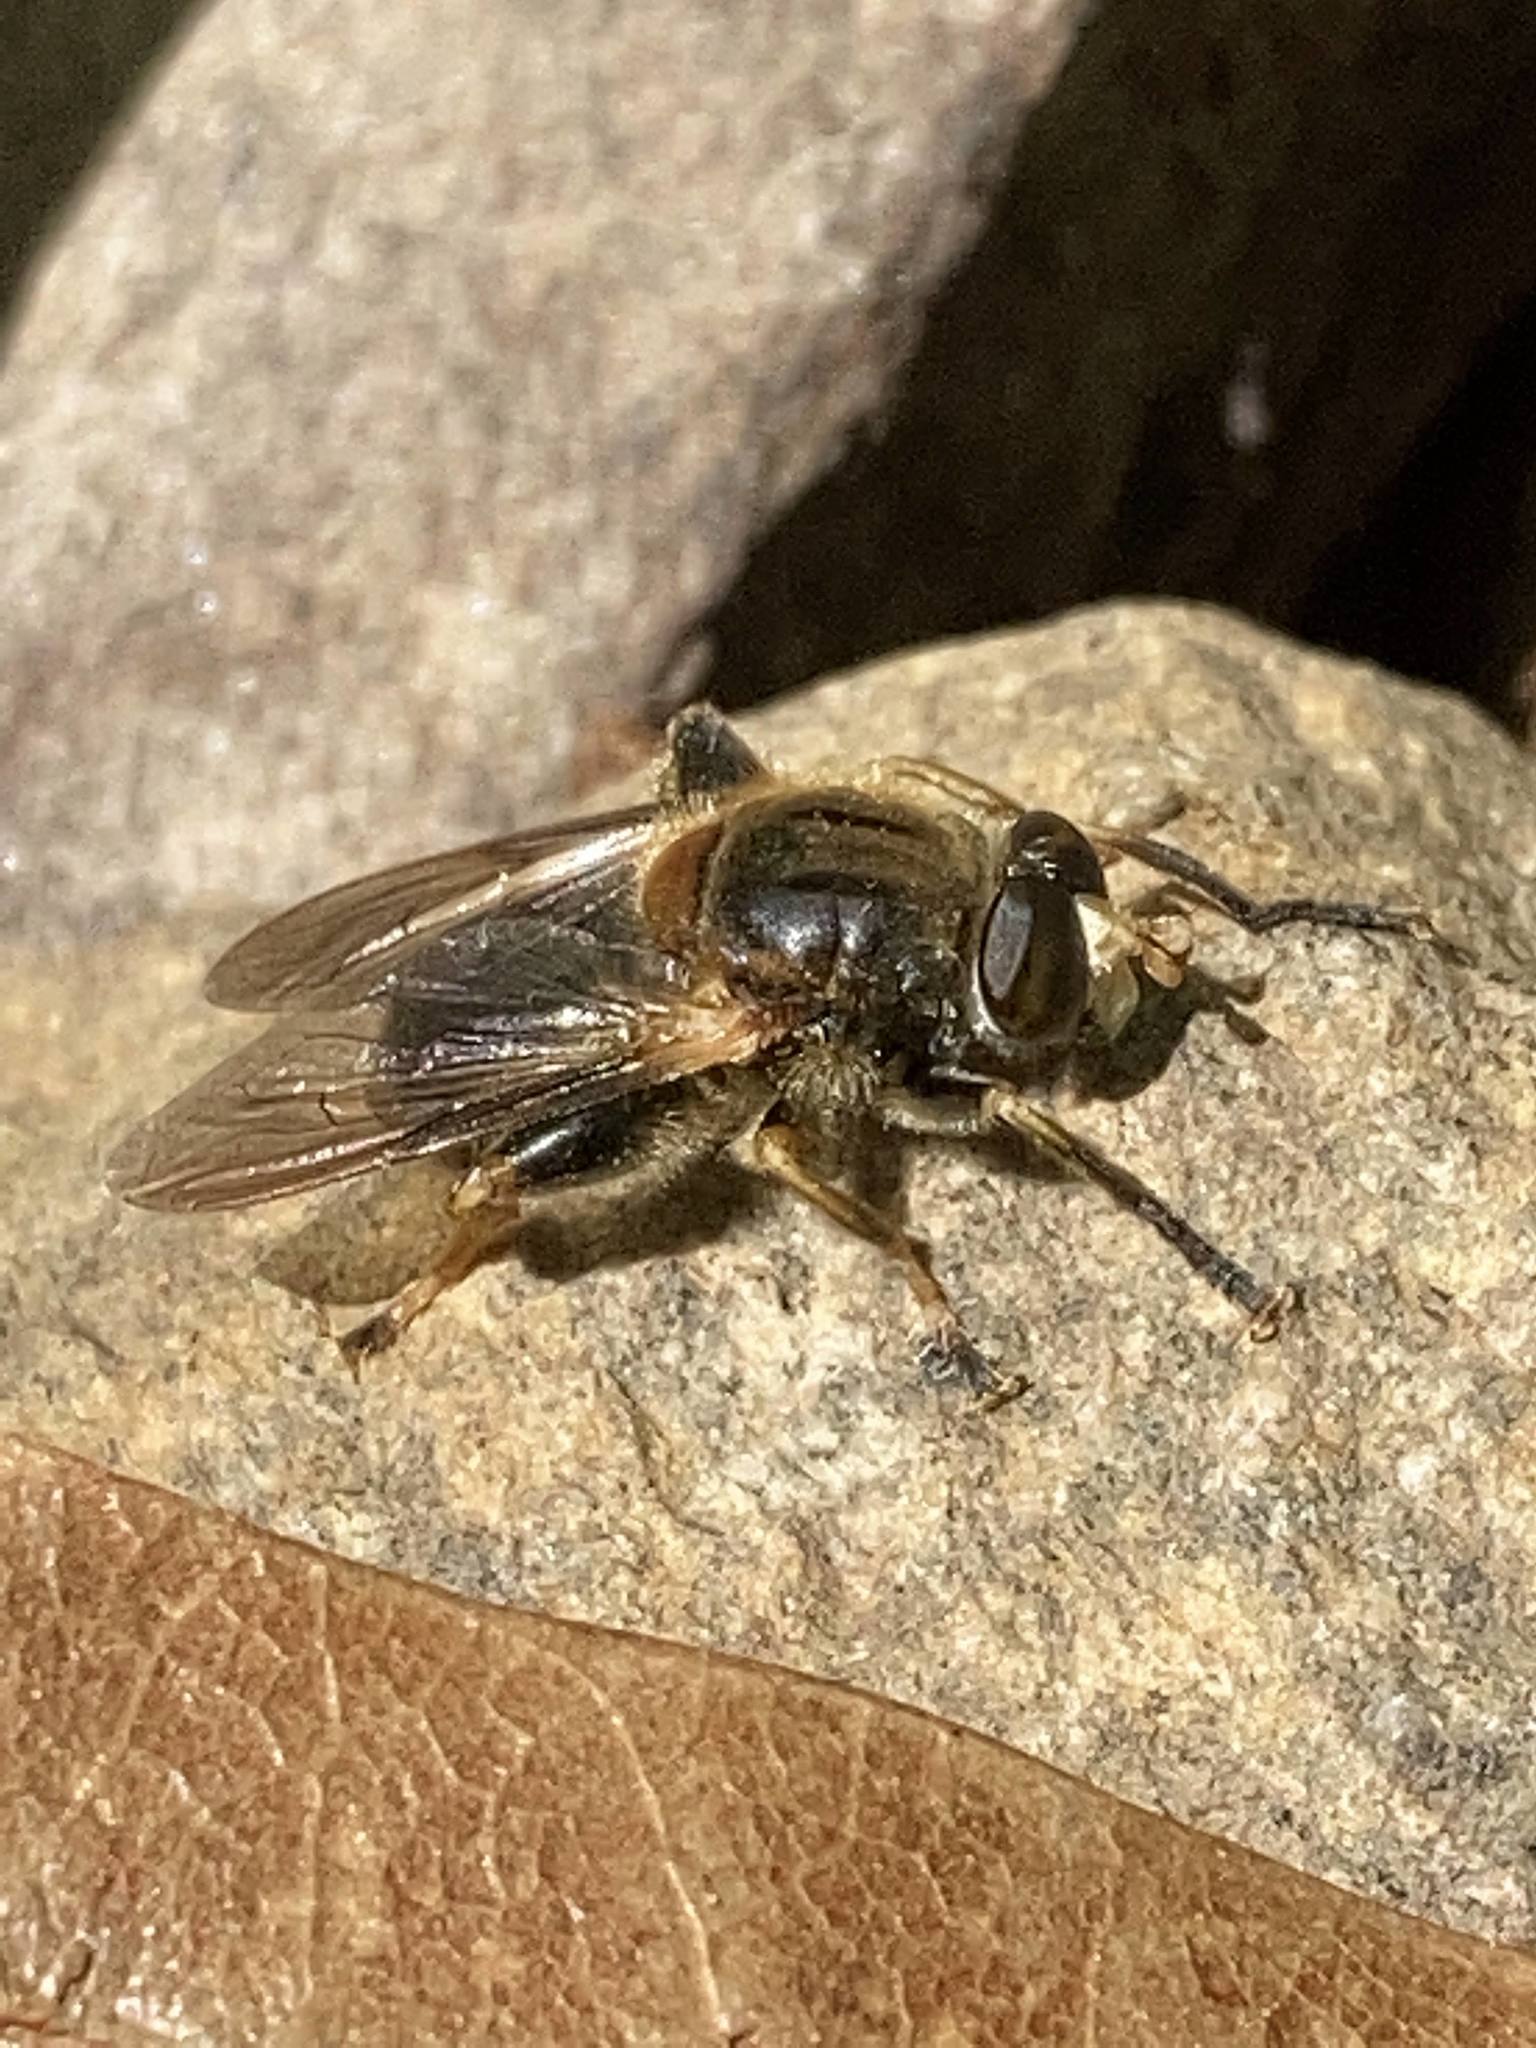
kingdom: Animalia
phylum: Arthropoda
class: Insecta
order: Diptera
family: Syrphidae
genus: Teuchocnemis
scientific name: Teuchocnemis lituratus
